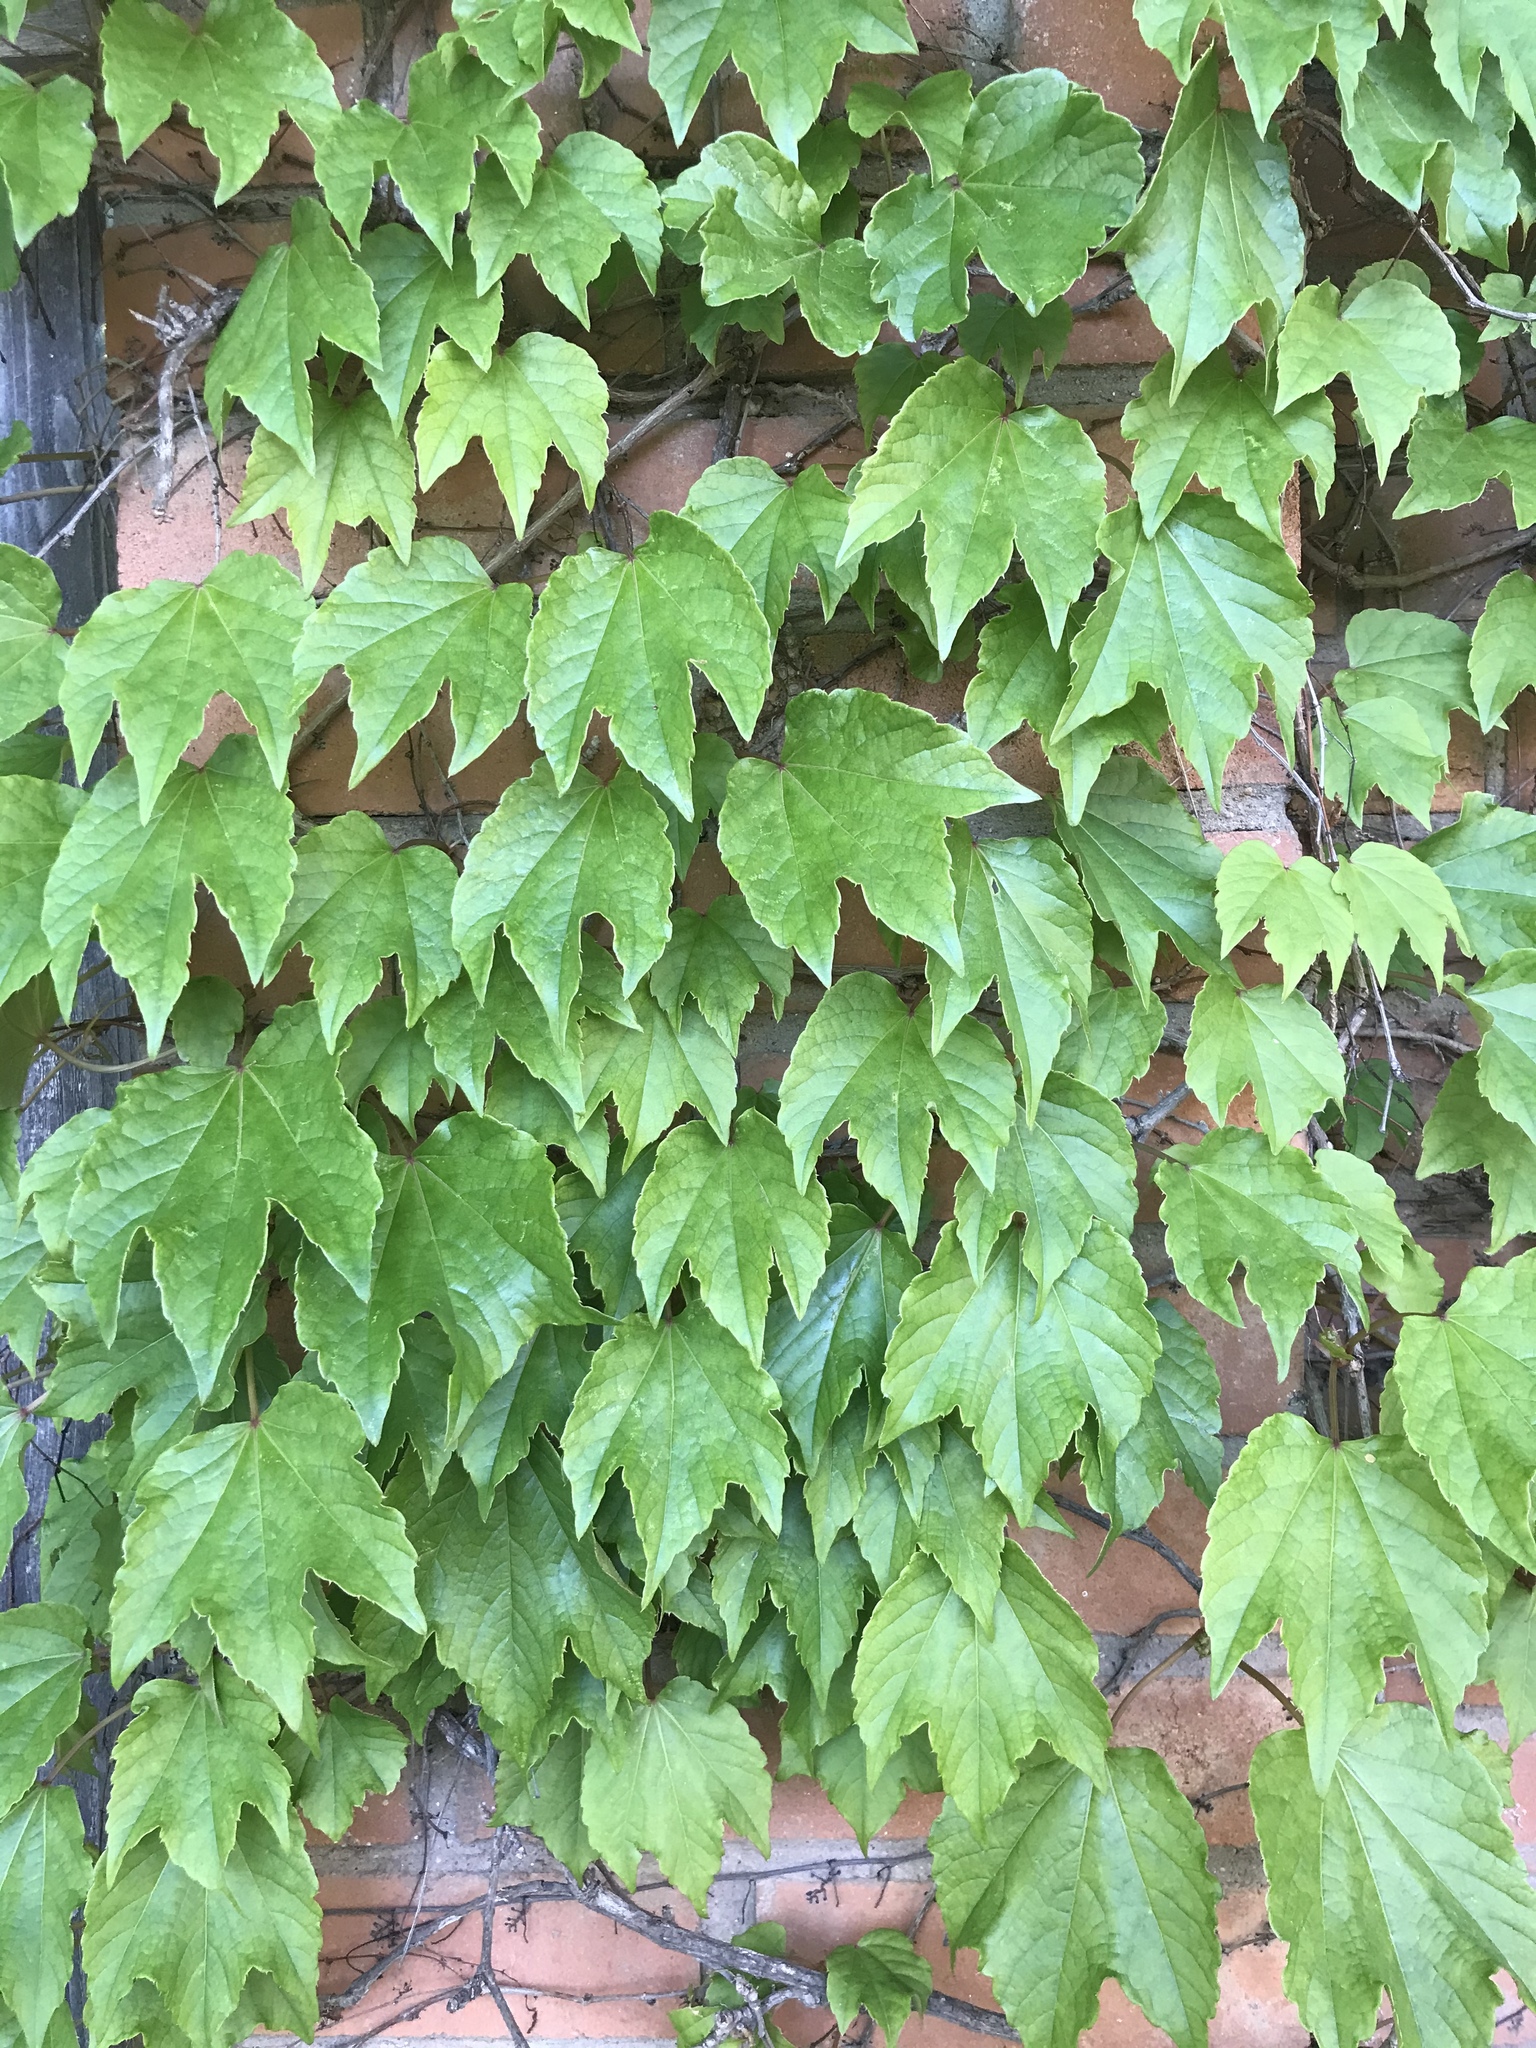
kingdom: Plantae
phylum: Tracheophyta
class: Magnoliopsida
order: Vitales
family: Vitaceae
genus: Parthenocissus
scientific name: Parthenocissus tricuspidata
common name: Boston ivy
